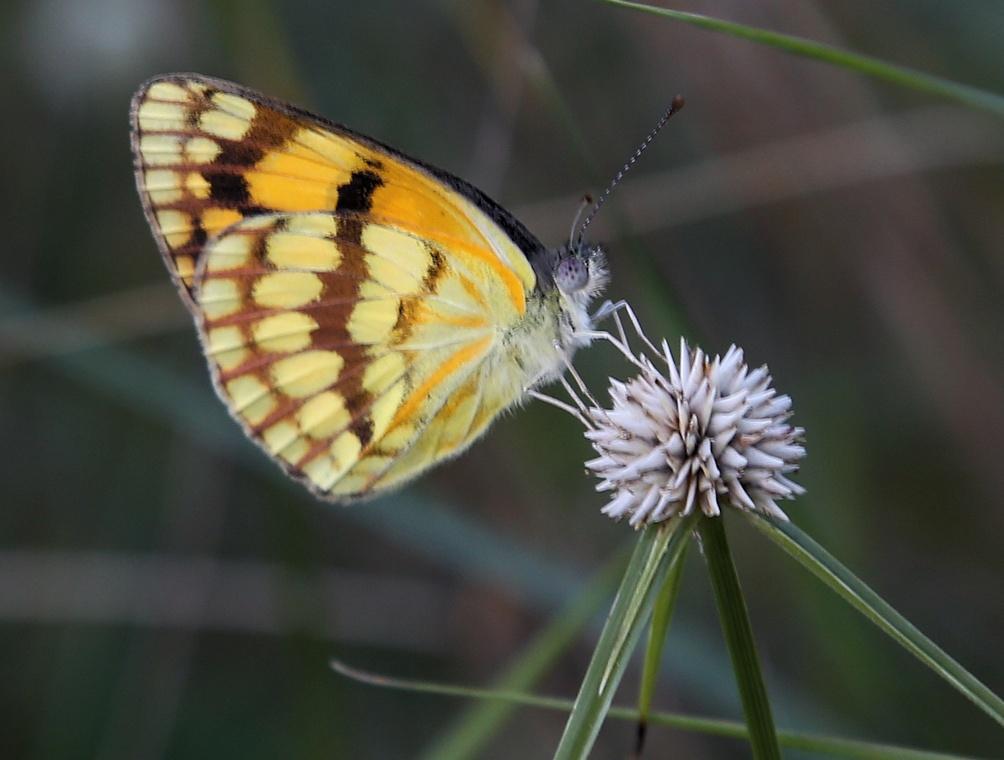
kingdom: Animalia
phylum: Arthropoda
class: Insecta
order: Lepidoptera
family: Pieridae
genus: Colotis
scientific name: Colotis vesta
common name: Veined golden arab
